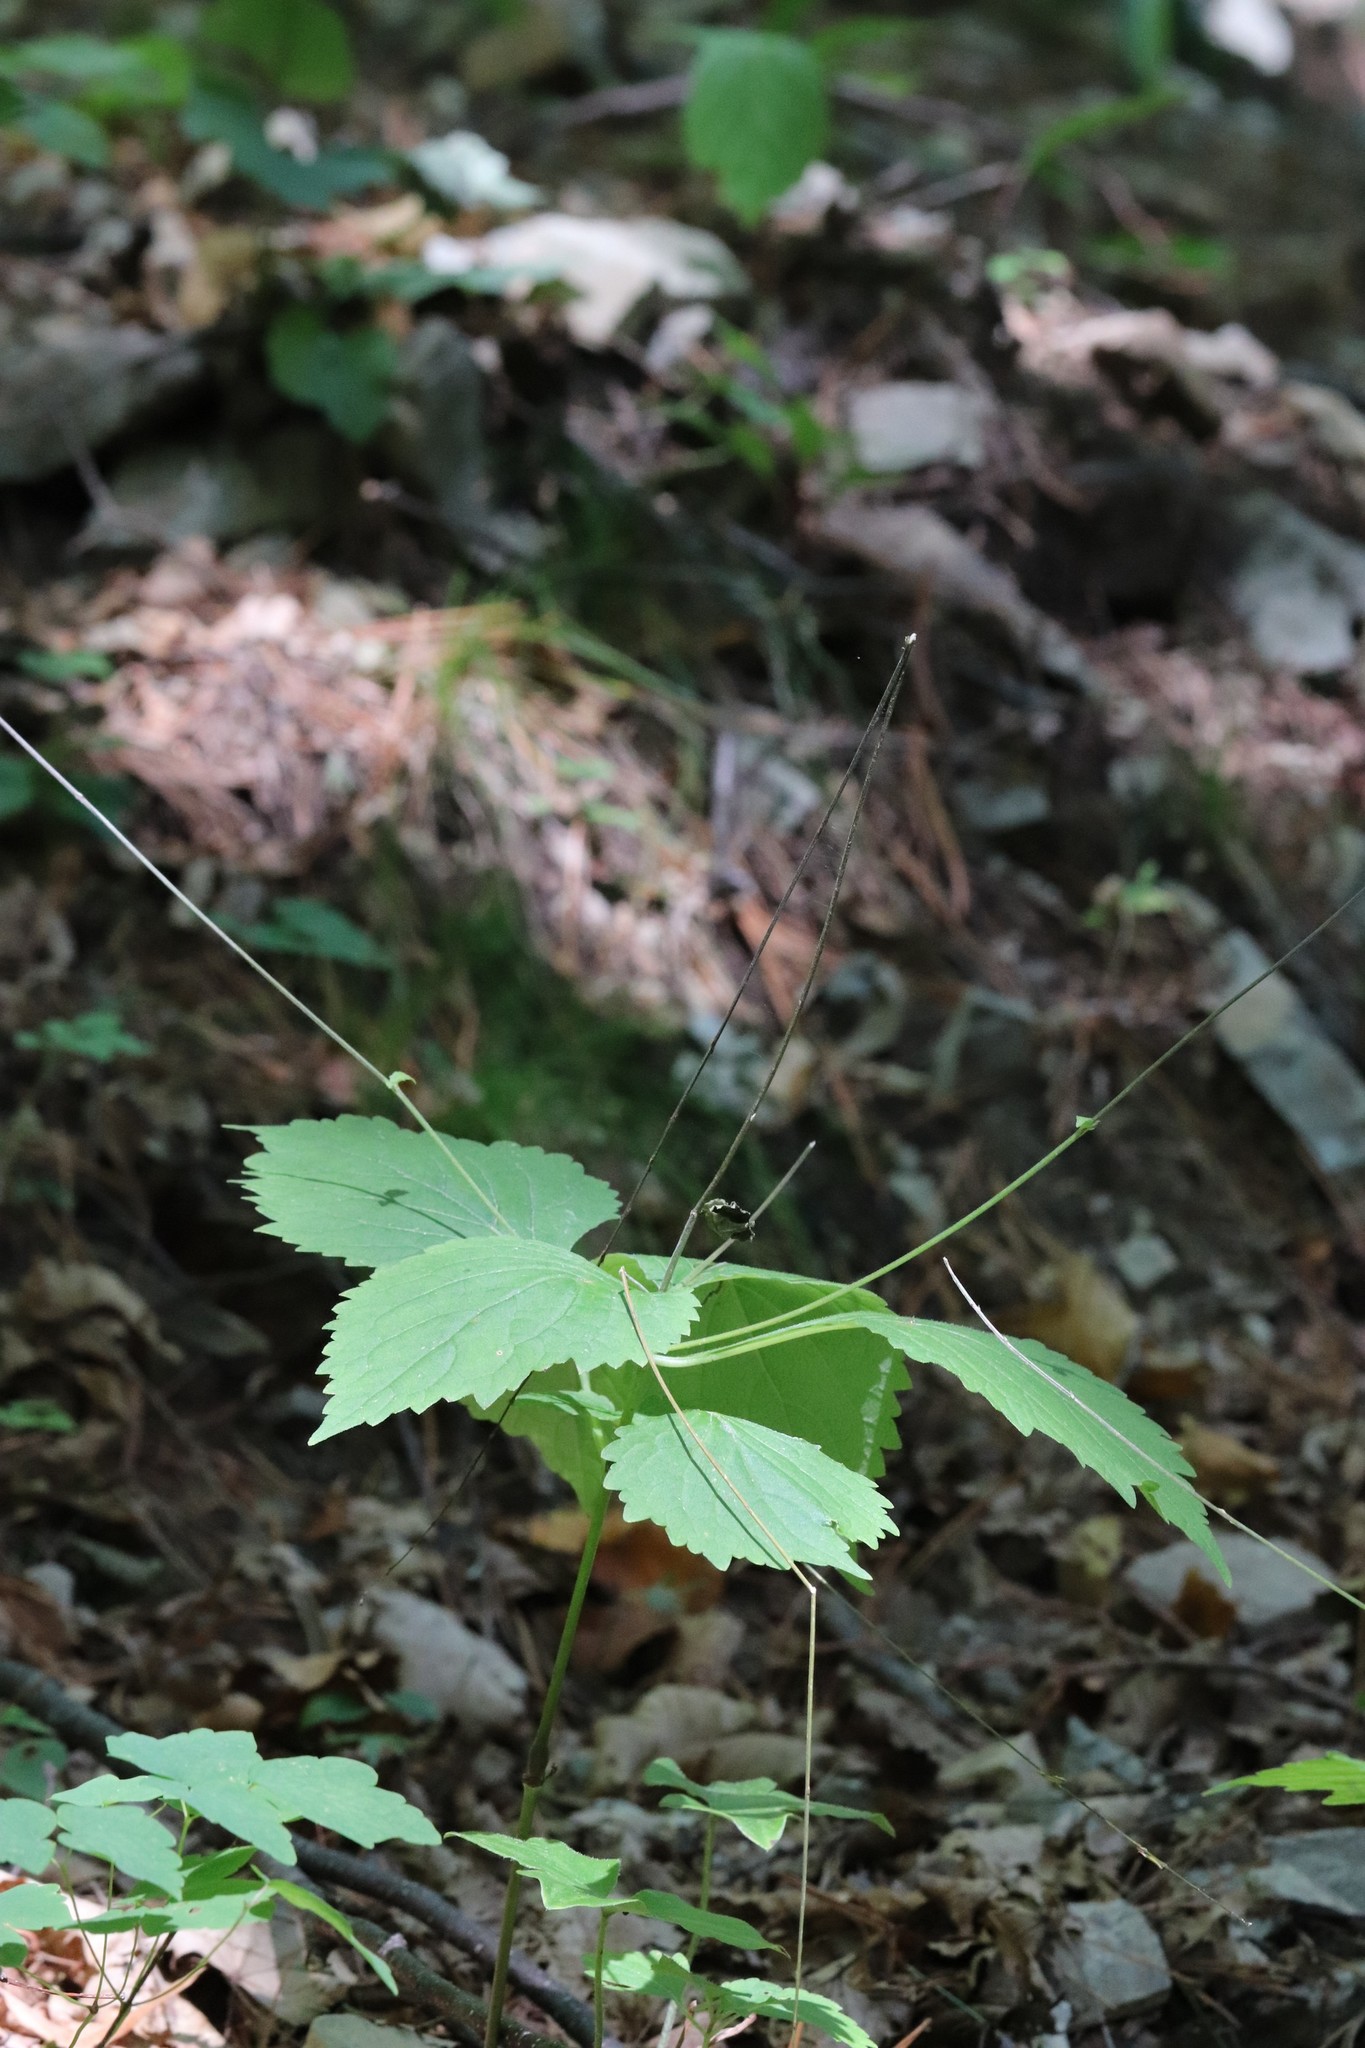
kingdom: Plantae
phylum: Tracheophyta
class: Magnoliopsida
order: Lamiales
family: Phrymaceae
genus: Phryma
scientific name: Phryma nana
